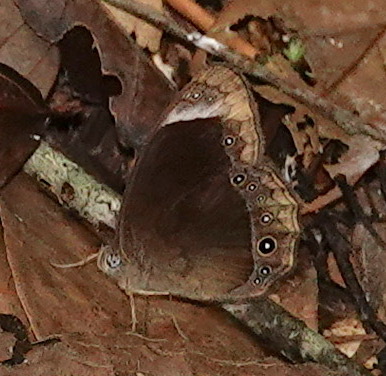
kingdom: Animalia
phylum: Arthropoda
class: Insecta
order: Lepidoptera
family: Nymphalidae
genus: Mycalesis
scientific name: Mycalesis anaxias
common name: White-bar bushbrown
